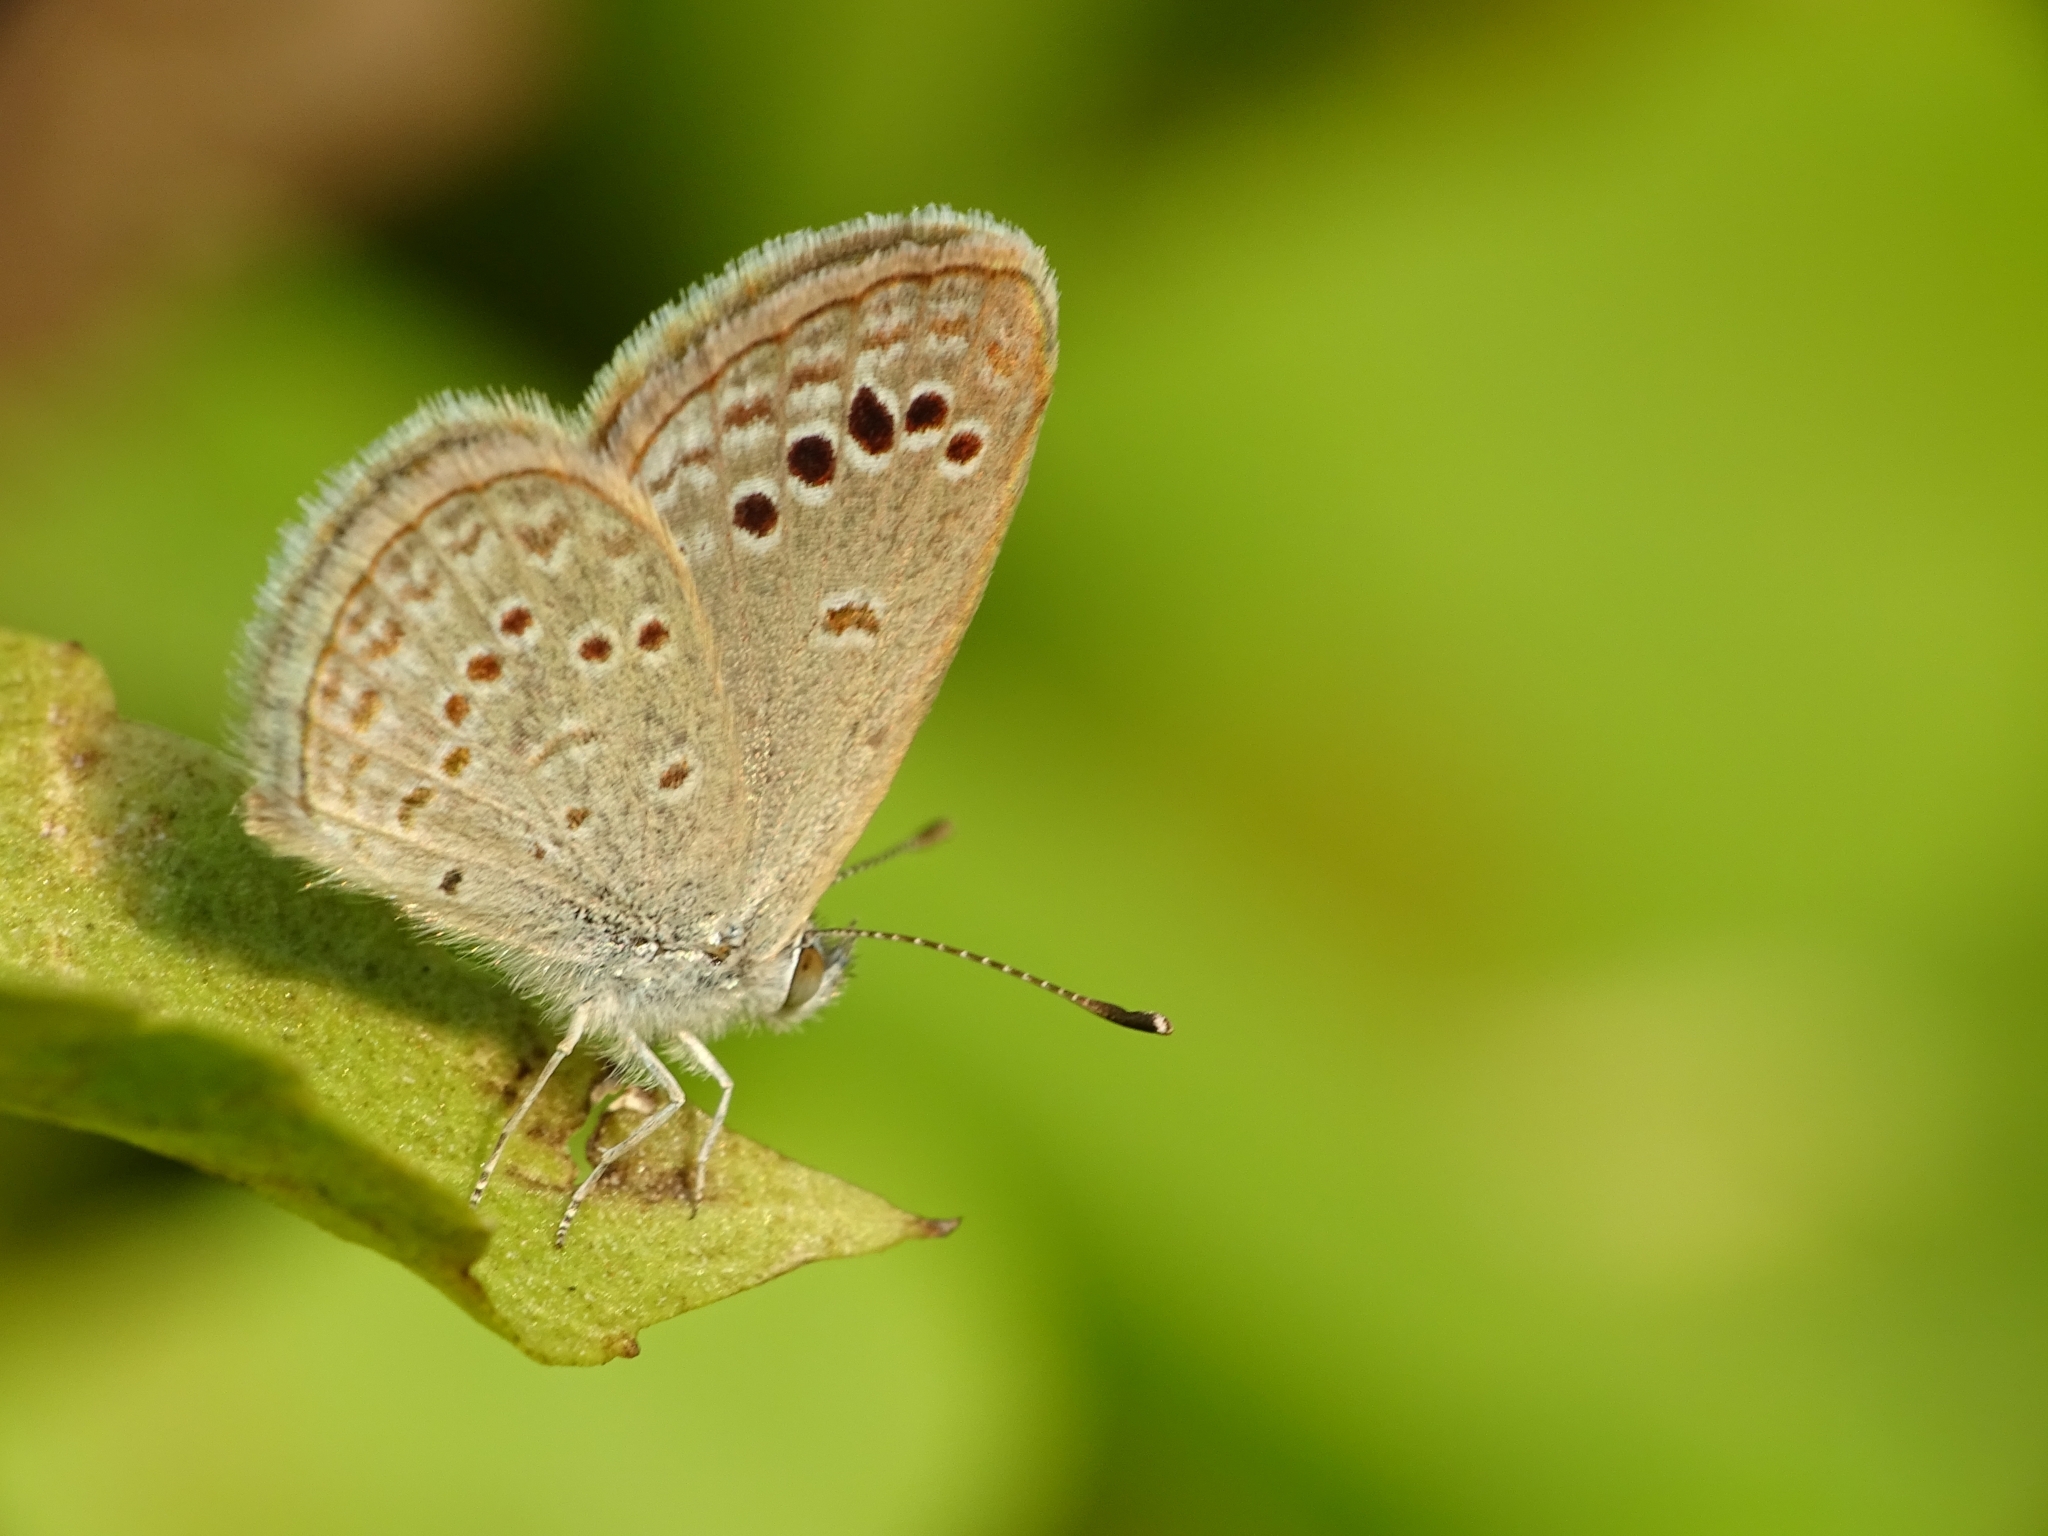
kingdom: Animalia
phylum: Arthropoda
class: Insecta
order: Lepidoptera
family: Lycaenidae
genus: Zizina
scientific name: Zizina otis
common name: Lesser grass blue
